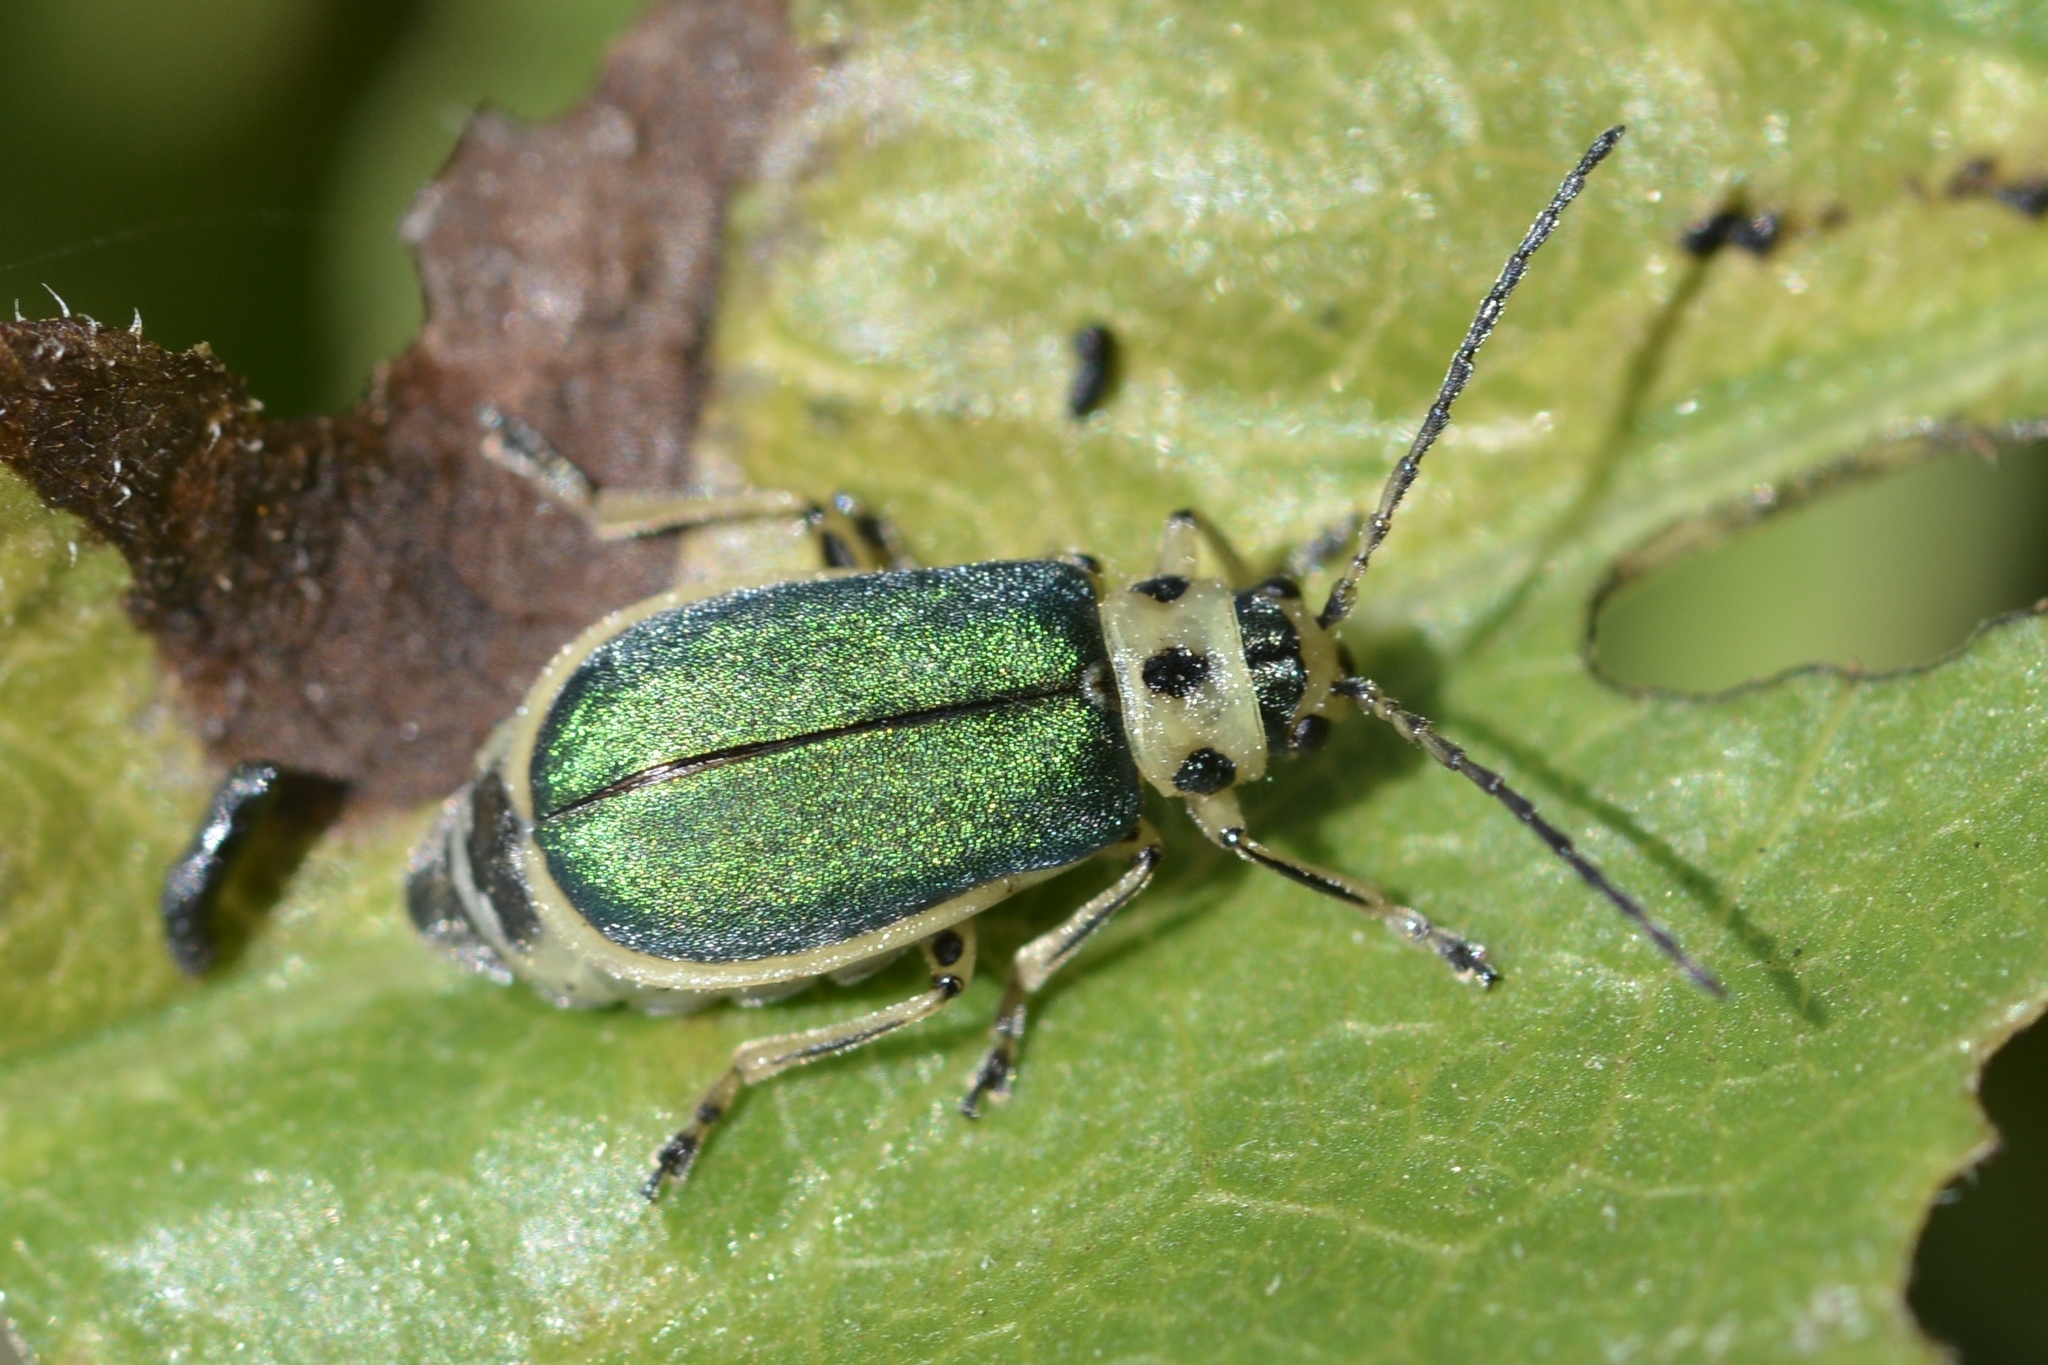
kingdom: Animalia
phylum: Arthropoda
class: Insecta
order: Coleoptera
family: Chrysomelidae
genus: Trirhabda
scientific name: Trirhabda flavolimbata
